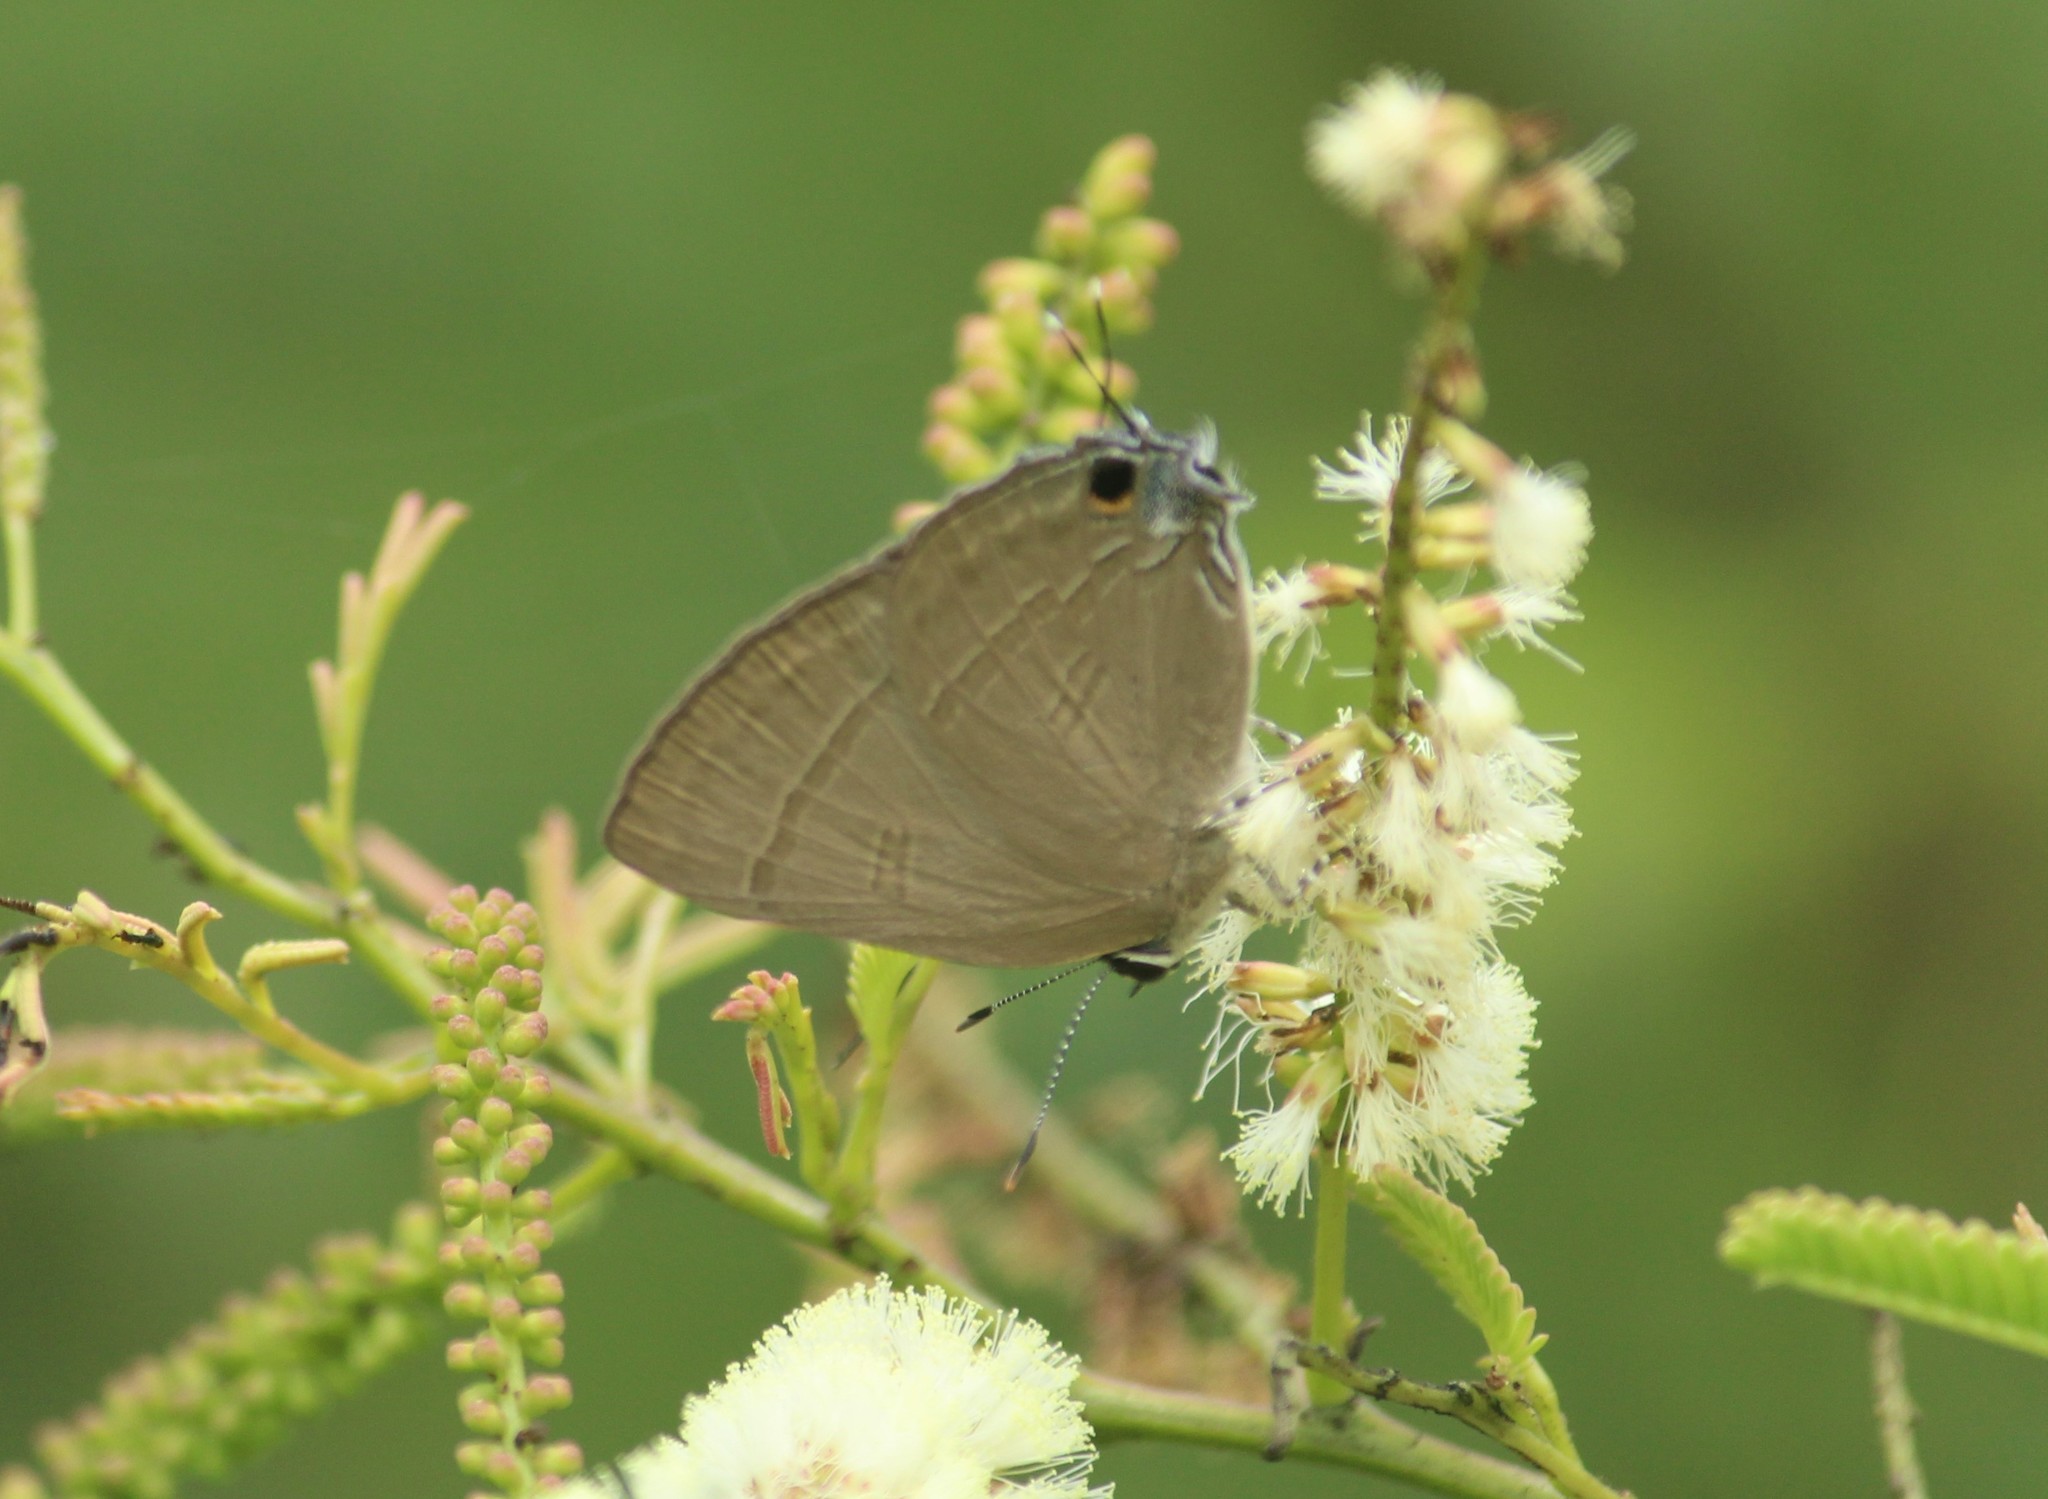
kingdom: Animalia
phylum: Arthropoda
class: Insecta
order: Lepidoptera
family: Lycaenidae
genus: Rapala
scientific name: Rapala manea
